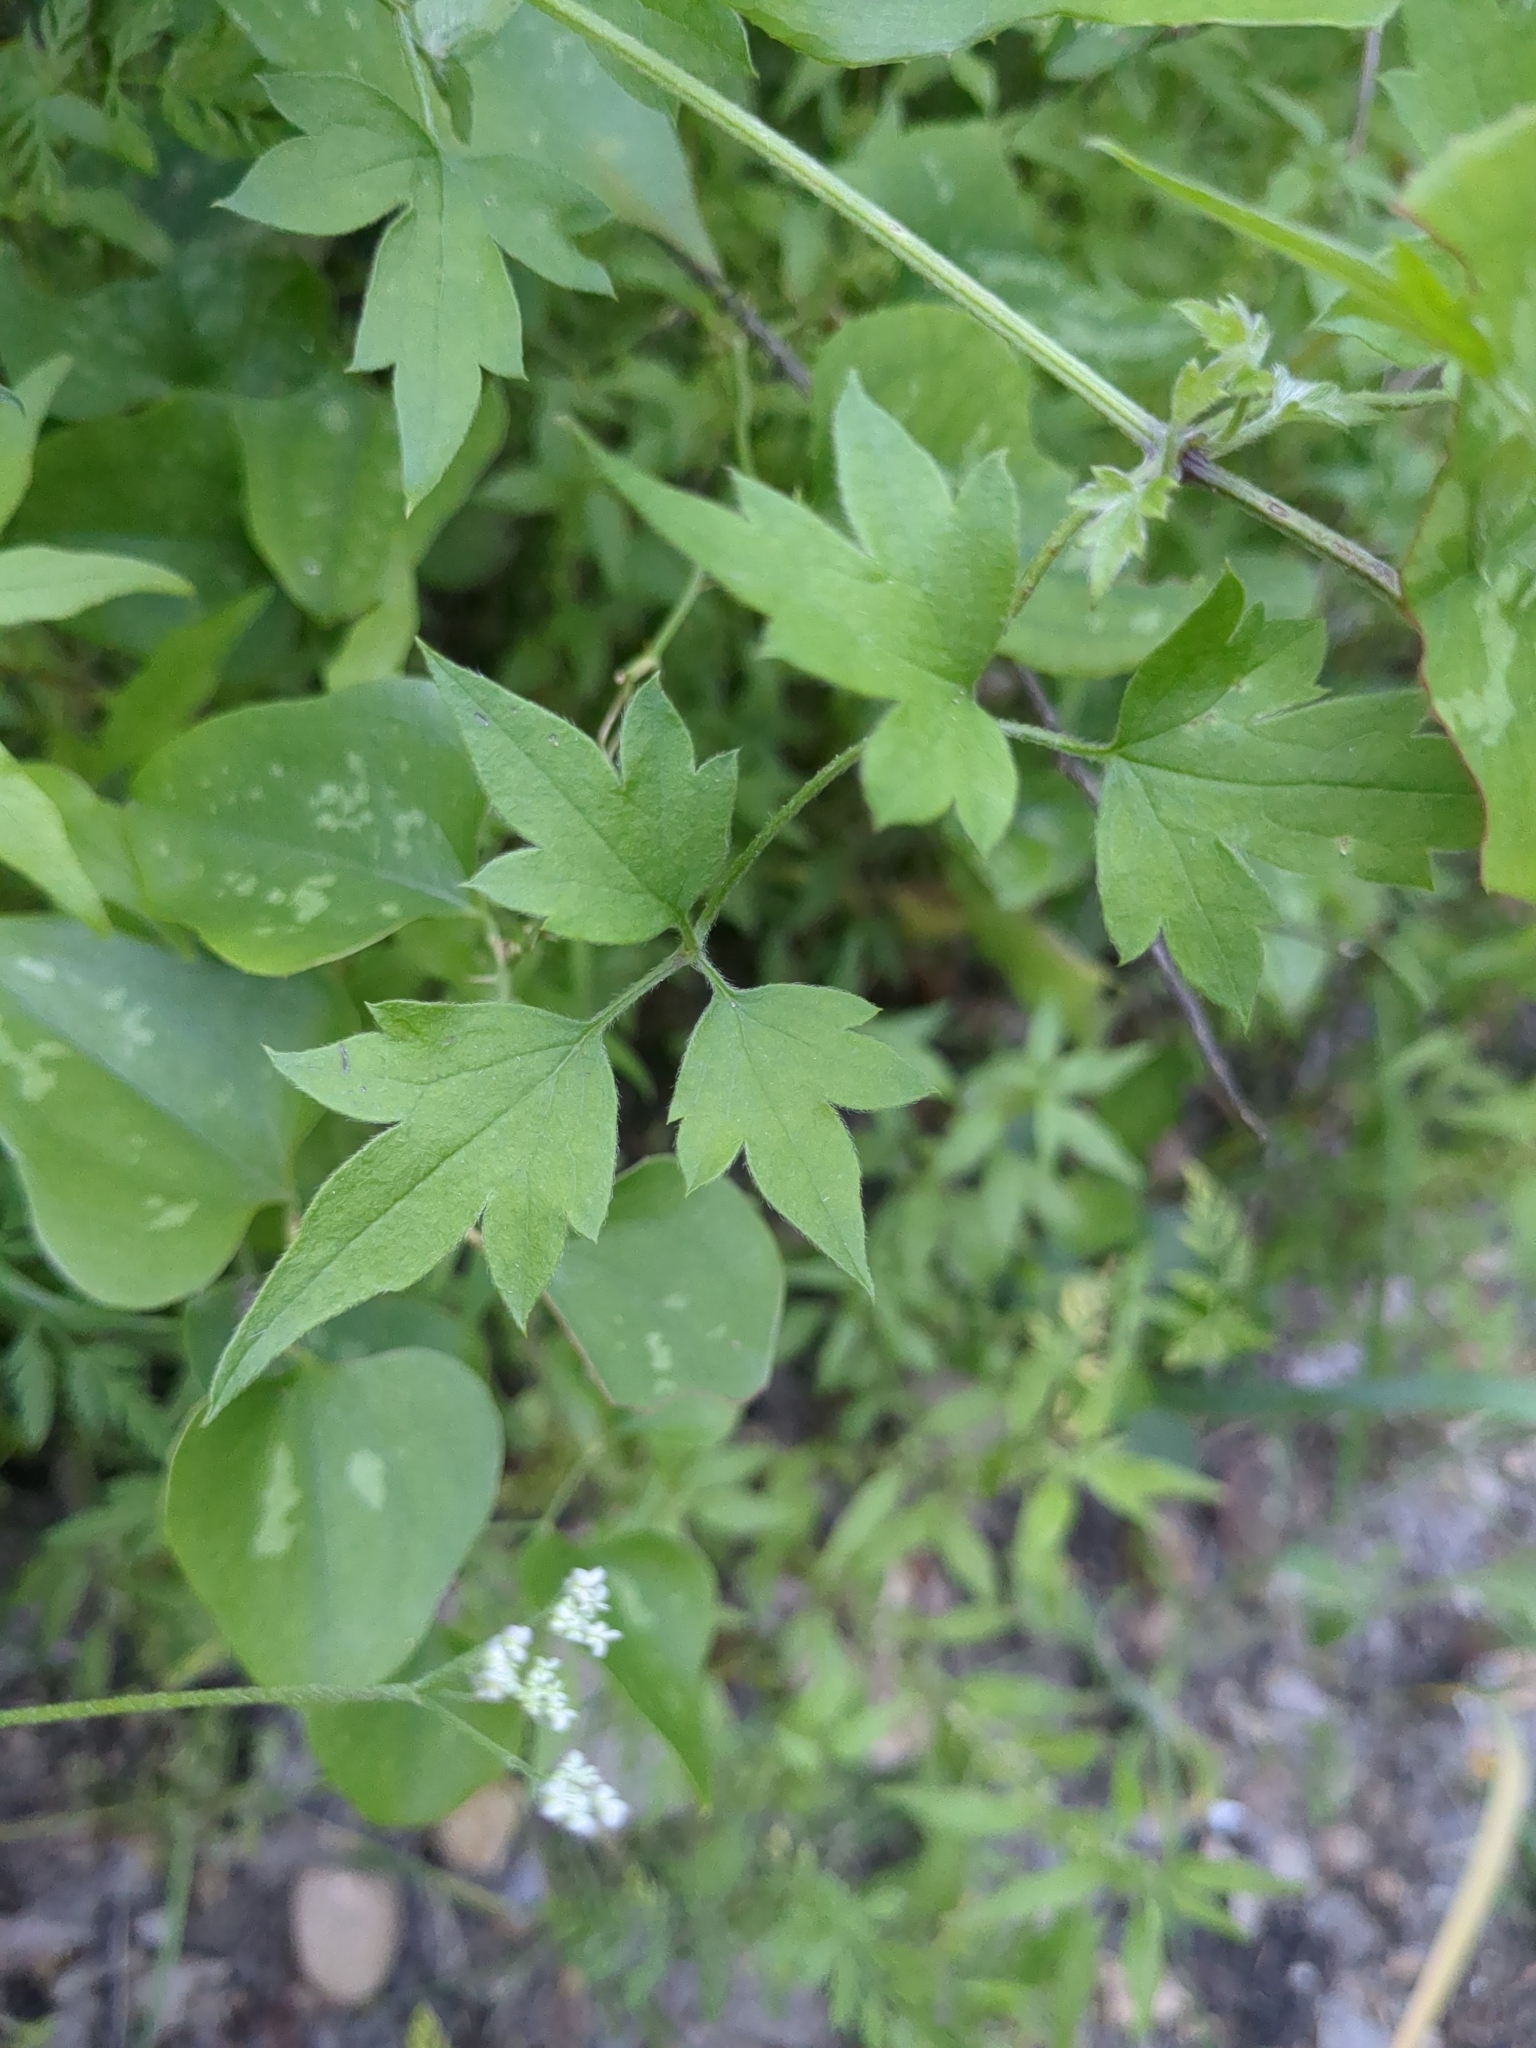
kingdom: Plantae
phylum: Tracheophyta
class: Magnoliopsida
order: Ranunculales
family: Ranunculaceae
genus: Clematis
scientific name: Clematis drummondii
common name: Texas virgin's bower
